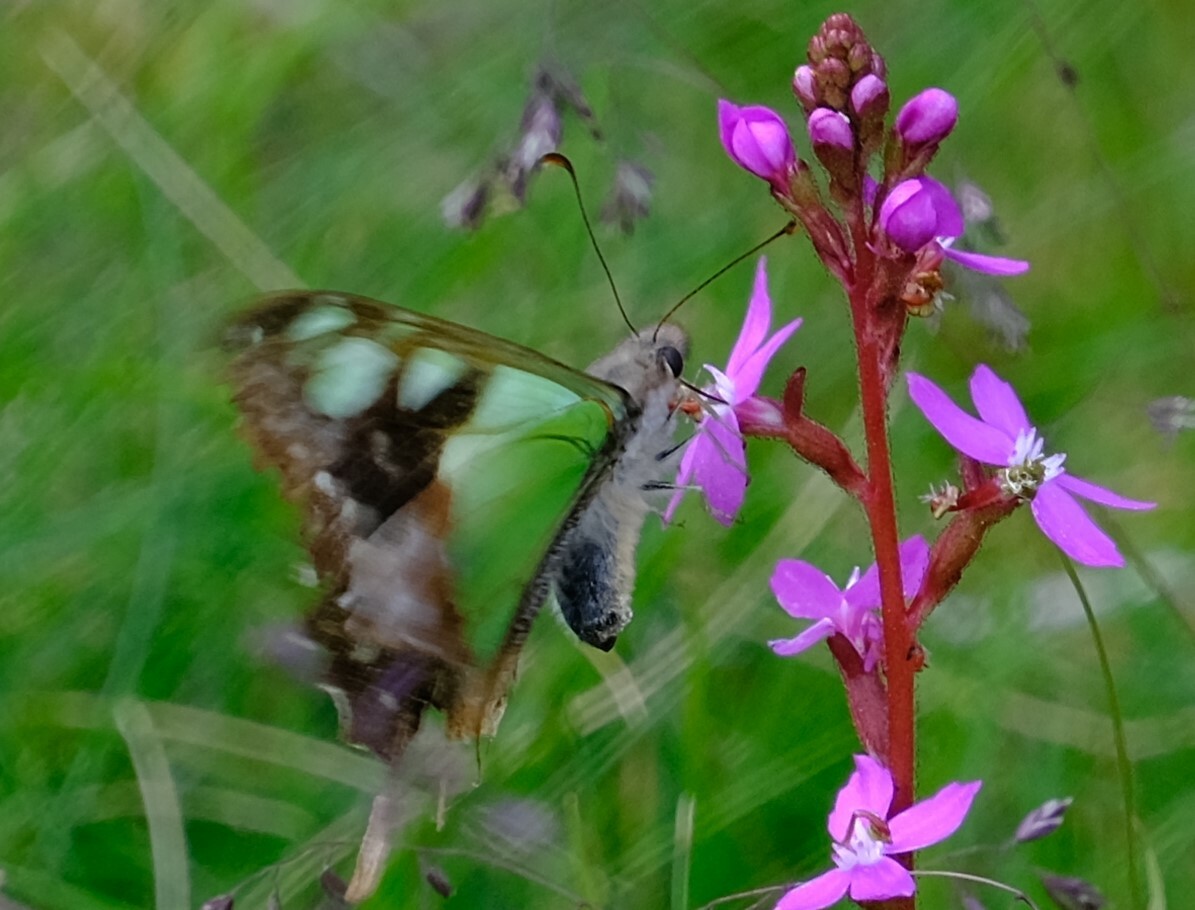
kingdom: Animalia
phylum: Arthropoda
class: Insecta
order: Lepidoptera
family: Papilionidae
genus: Graphium
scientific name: Graphium macleayanus
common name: Macleay's swallowtail
